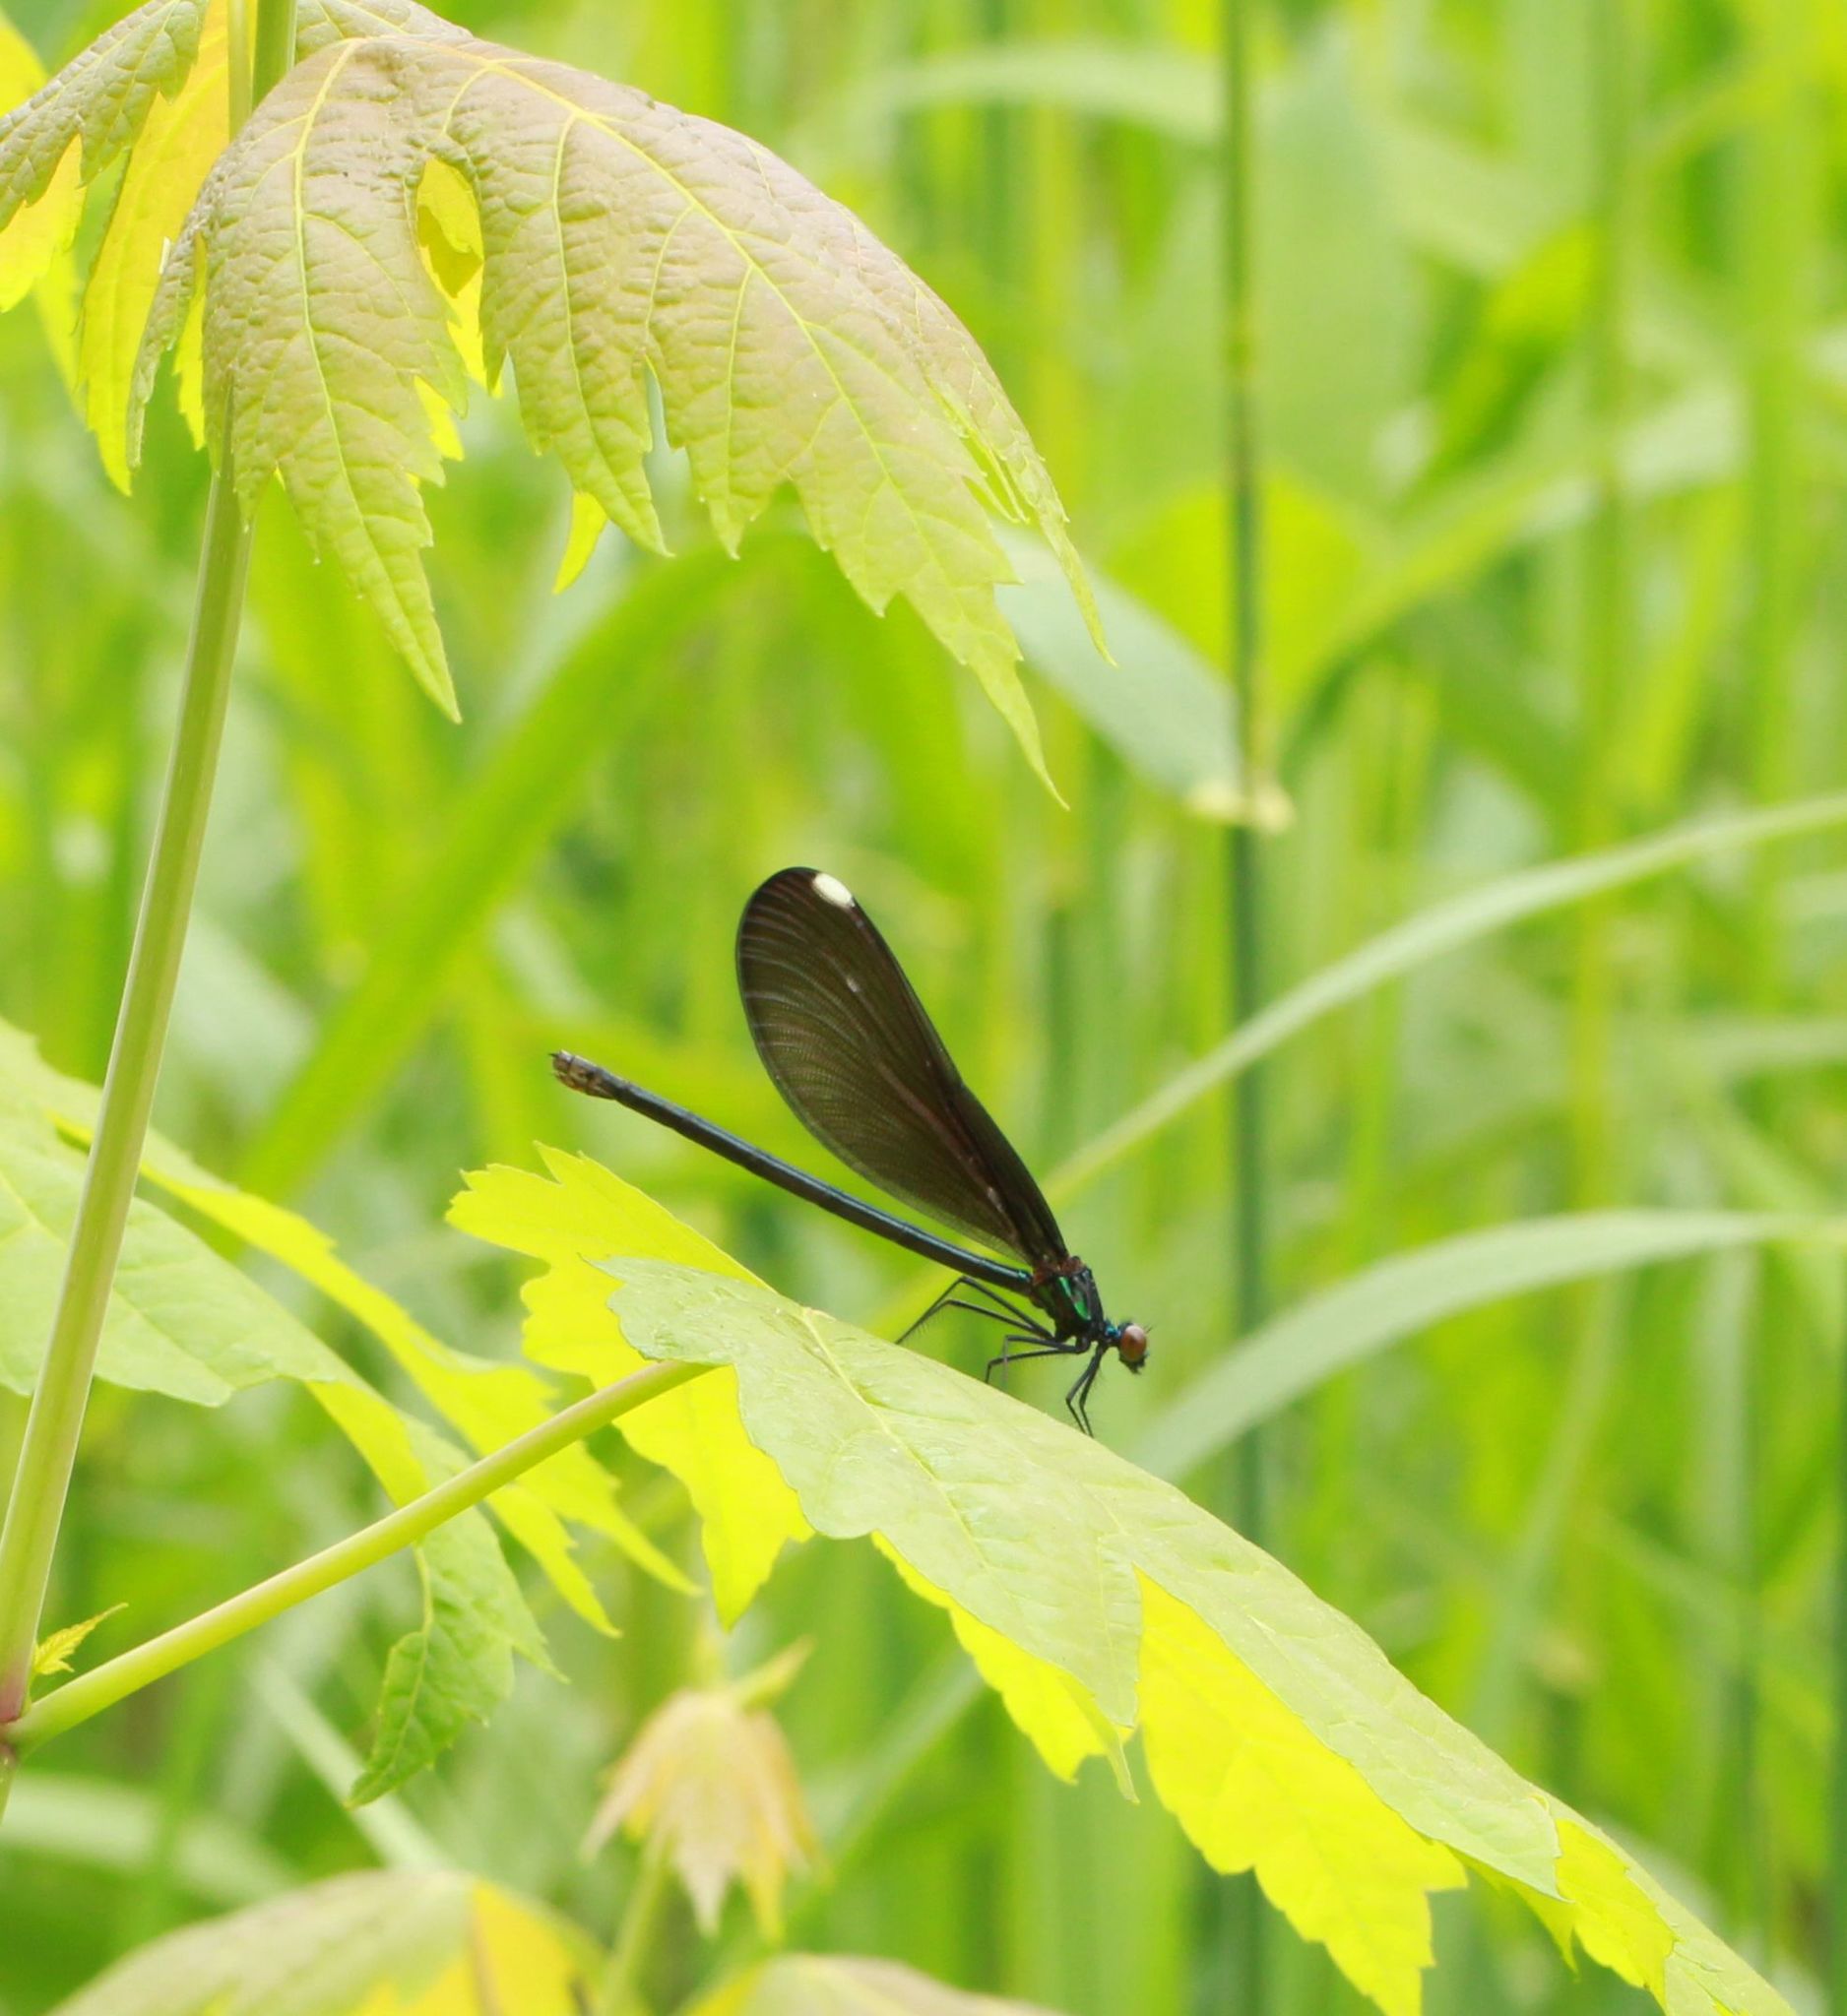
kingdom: Animalia
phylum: Arthropoda
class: Insecta
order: Odonata
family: Calopterygidae
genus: Calopteryx
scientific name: Calopteryx maculata
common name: Ebony jewelwing
